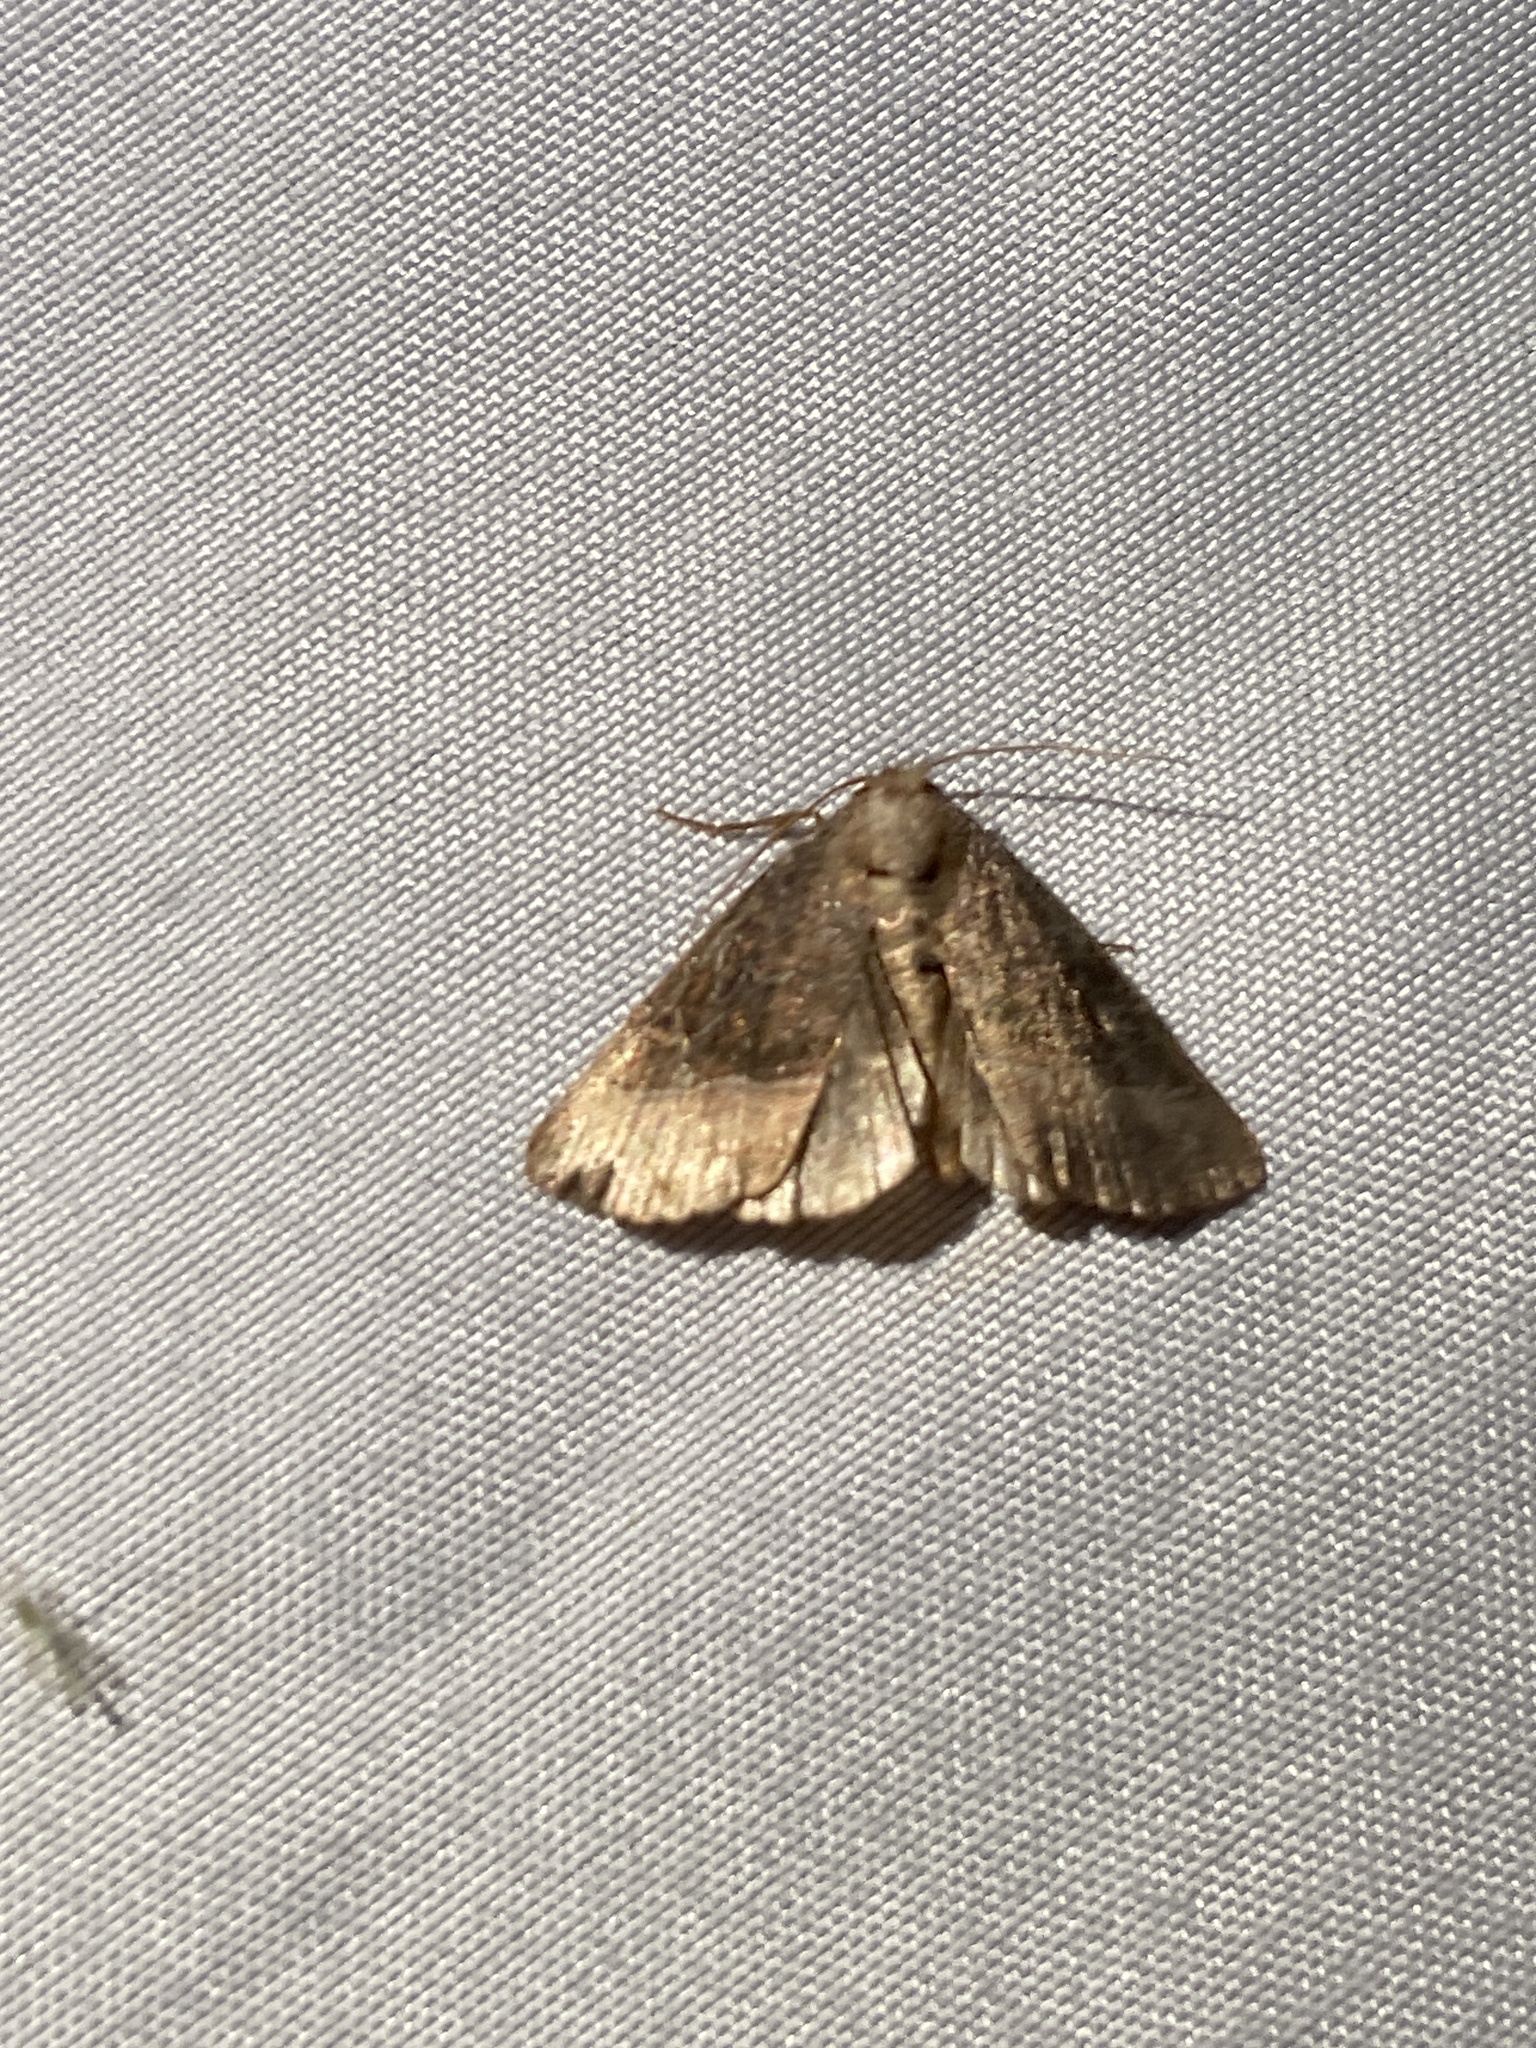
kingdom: Animalia
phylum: Arthropoda
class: Insecta
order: Lepidoptera
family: Noctuidae
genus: Ogdoconta
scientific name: Ogdoconta cinereola
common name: Common pinkband
